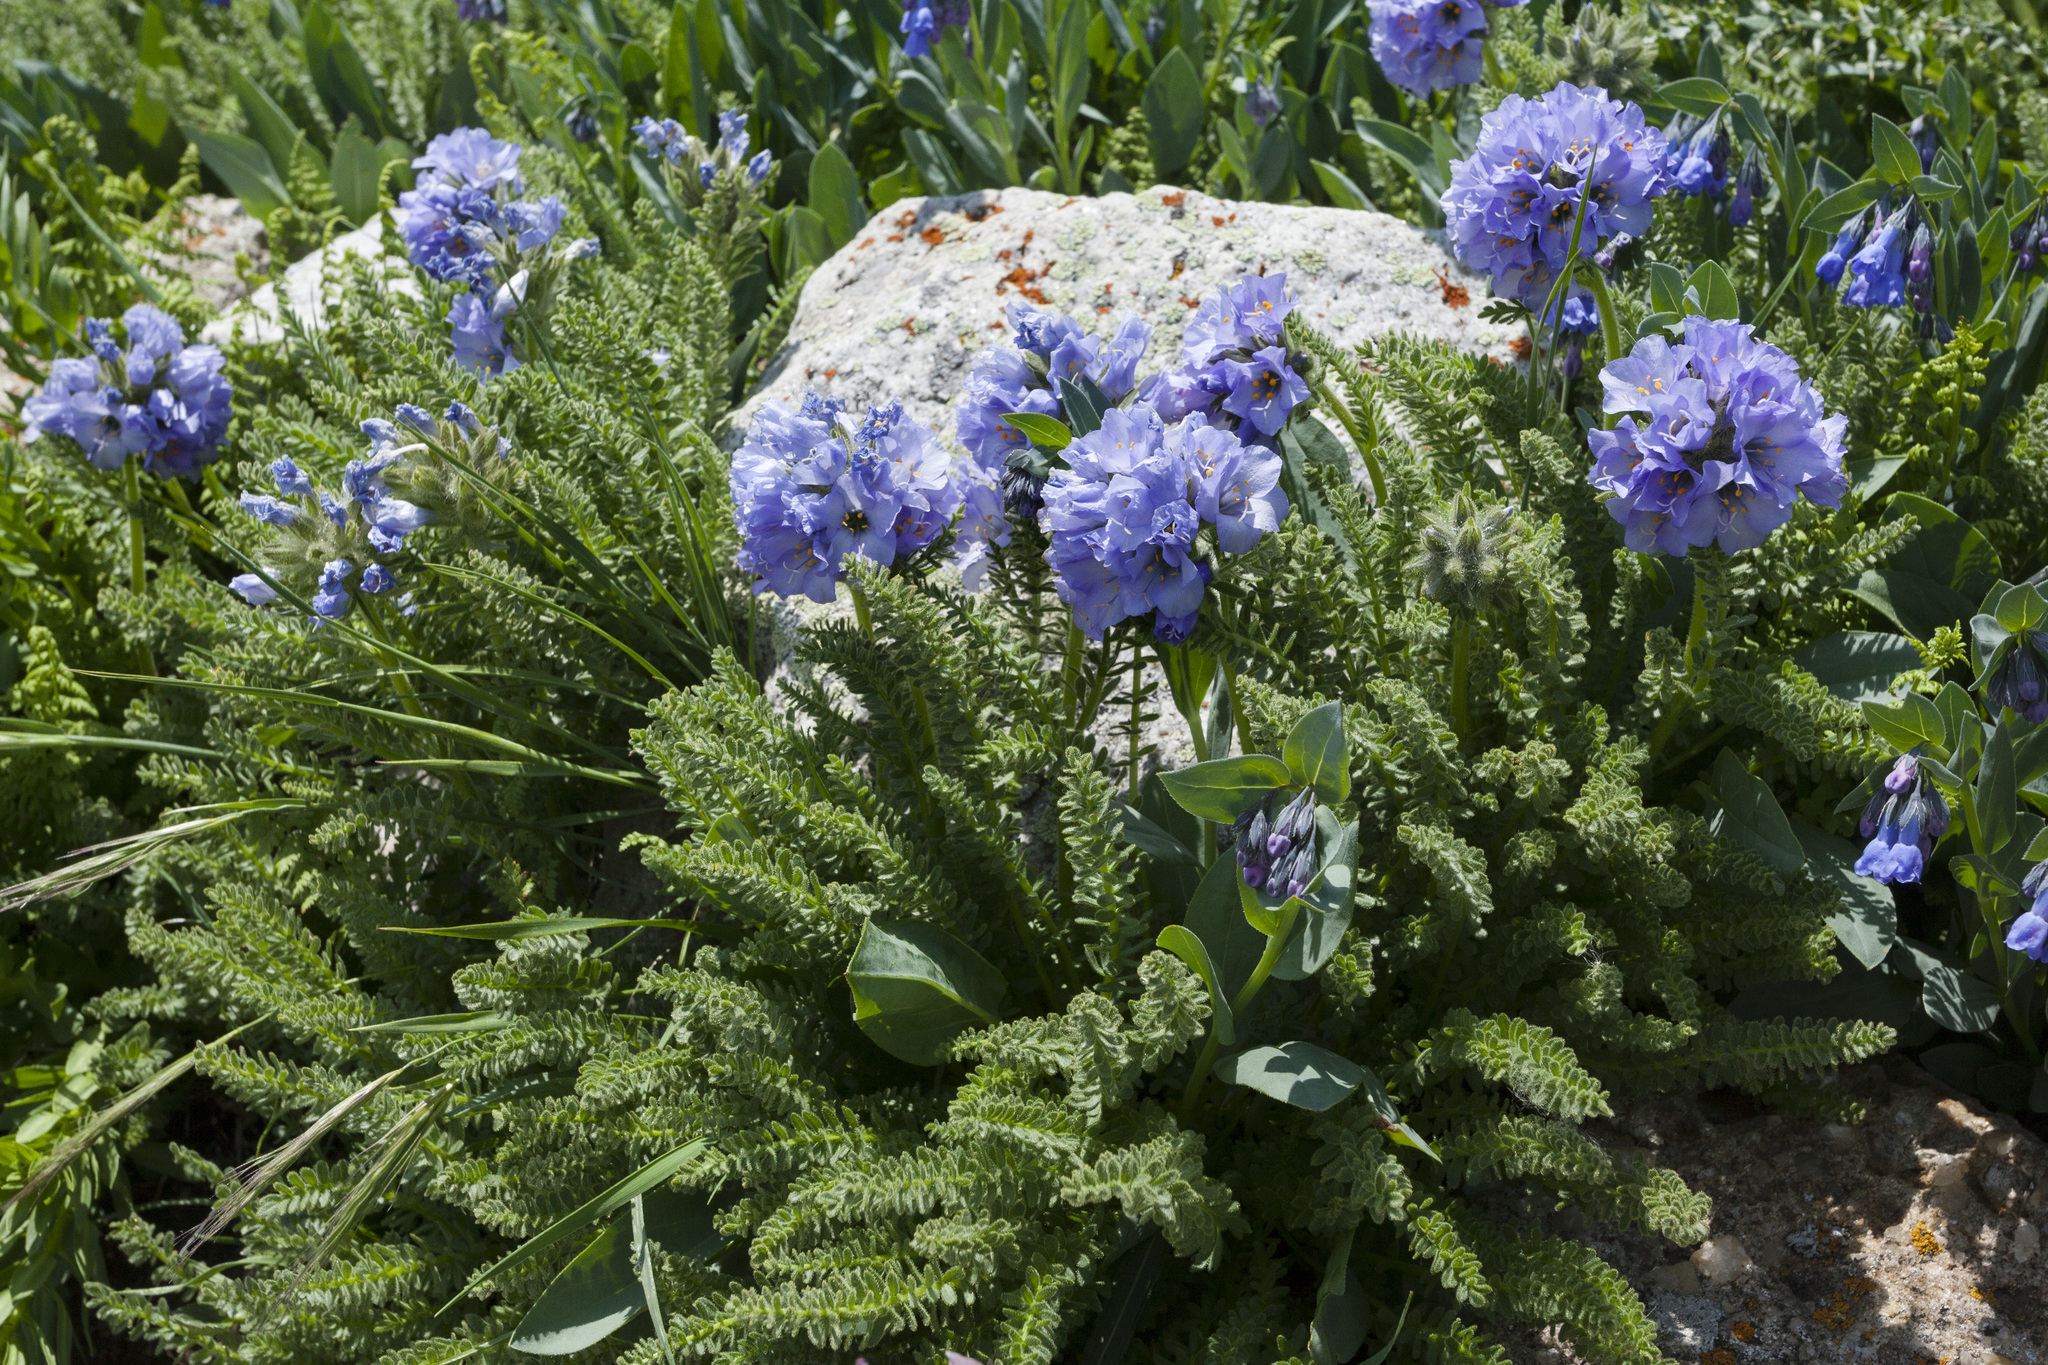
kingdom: Plantae
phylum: Tracheophyta
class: Magnoliopsida
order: Ericales
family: Polemoniaceae
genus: Polemonium
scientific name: Polemonium viscosum
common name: Skunk jacob's-ladder
